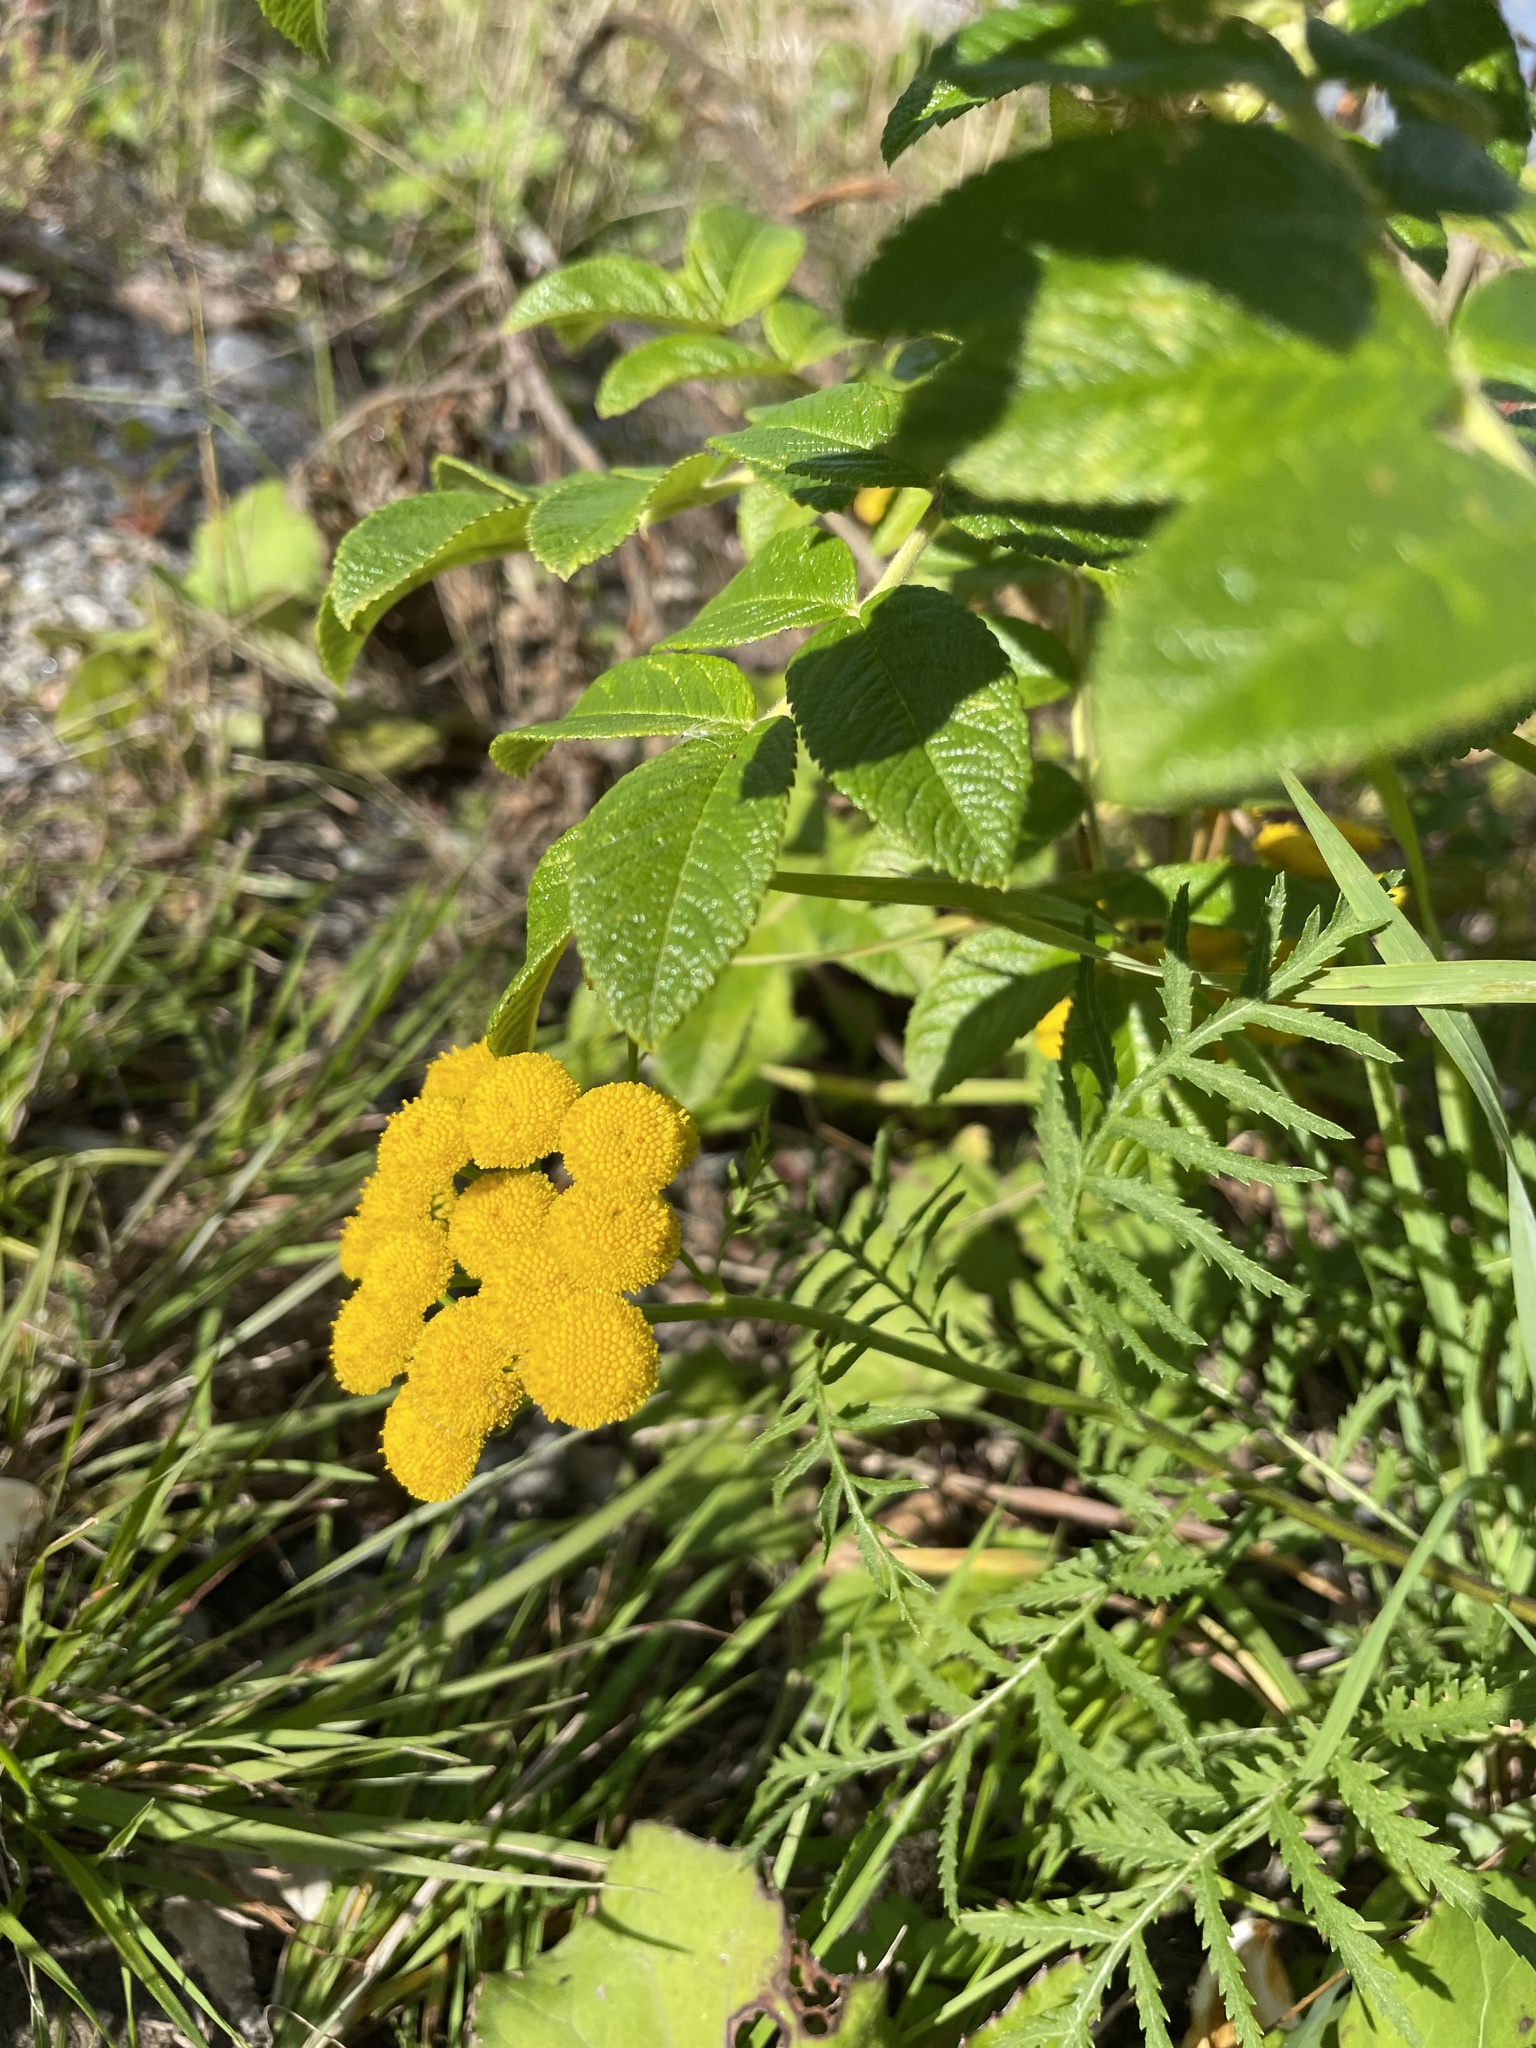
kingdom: Plantae
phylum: Tracheophyta
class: Magnoliopsida
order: Asterales
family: Asteraceae
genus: Tanacetum
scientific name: Tanacetum vulgare
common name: Common tansy
